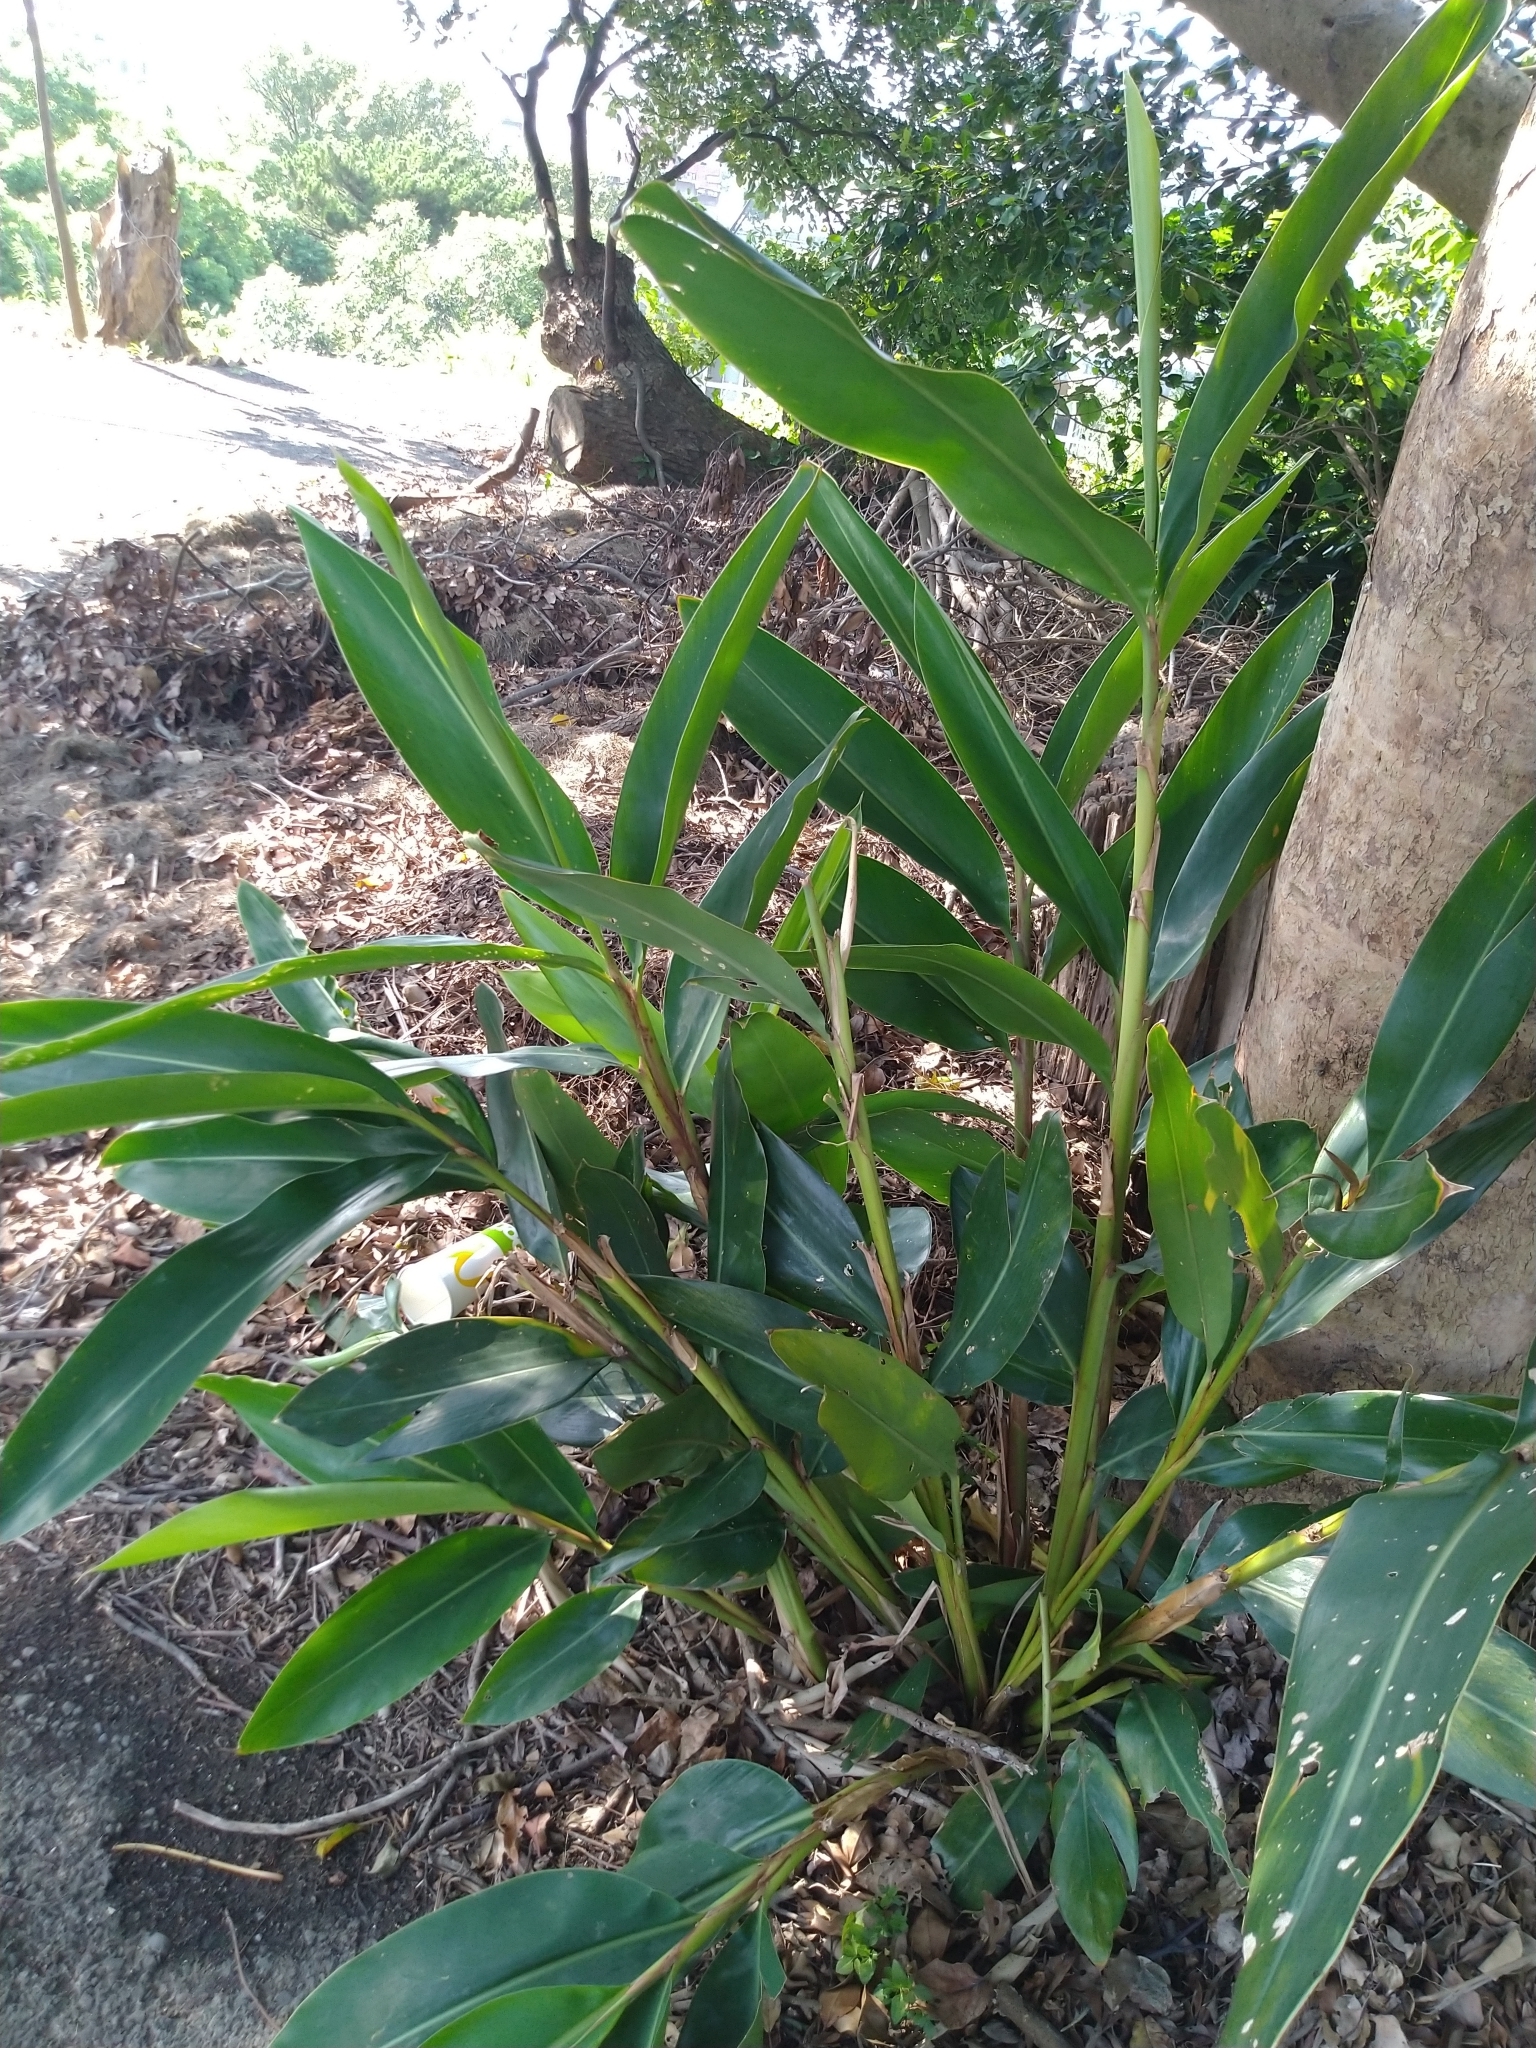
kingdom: Plantae
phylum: Tracheophyta
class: Liliopsida
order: Zingiberales
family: Zingiberaceae
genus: Alpinia
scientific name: Alpinia zerumbet
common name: Shellplant
